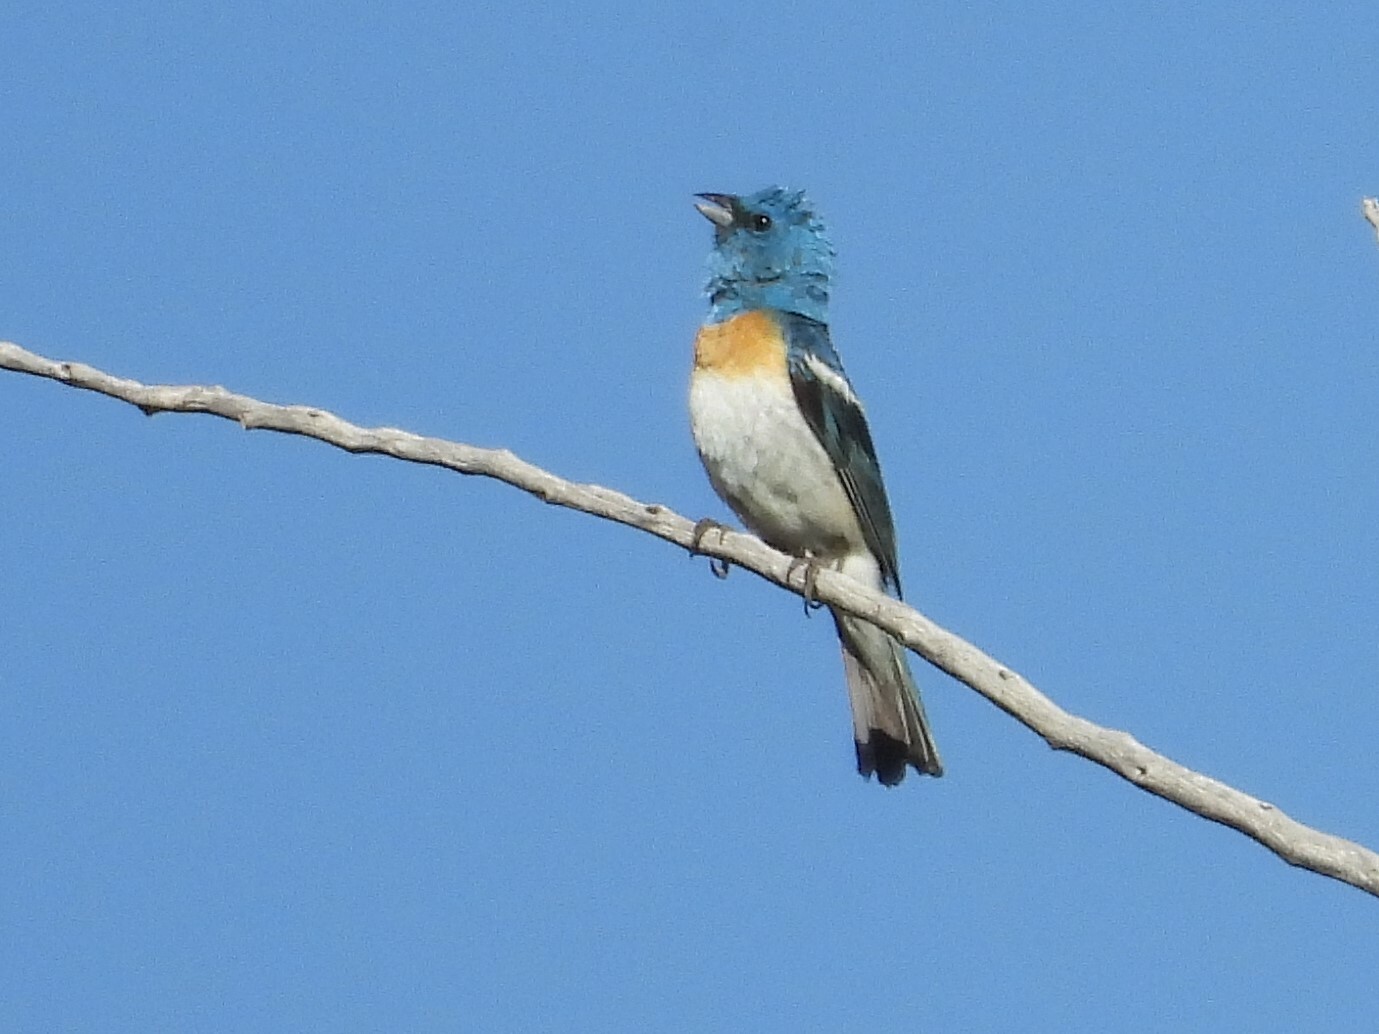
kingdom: Animalia
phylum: Chordata
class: Aves
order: Passeriformes
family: Cardinalidae
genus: Passerina
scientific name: Passerina amoena
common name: Lazuli bunting
